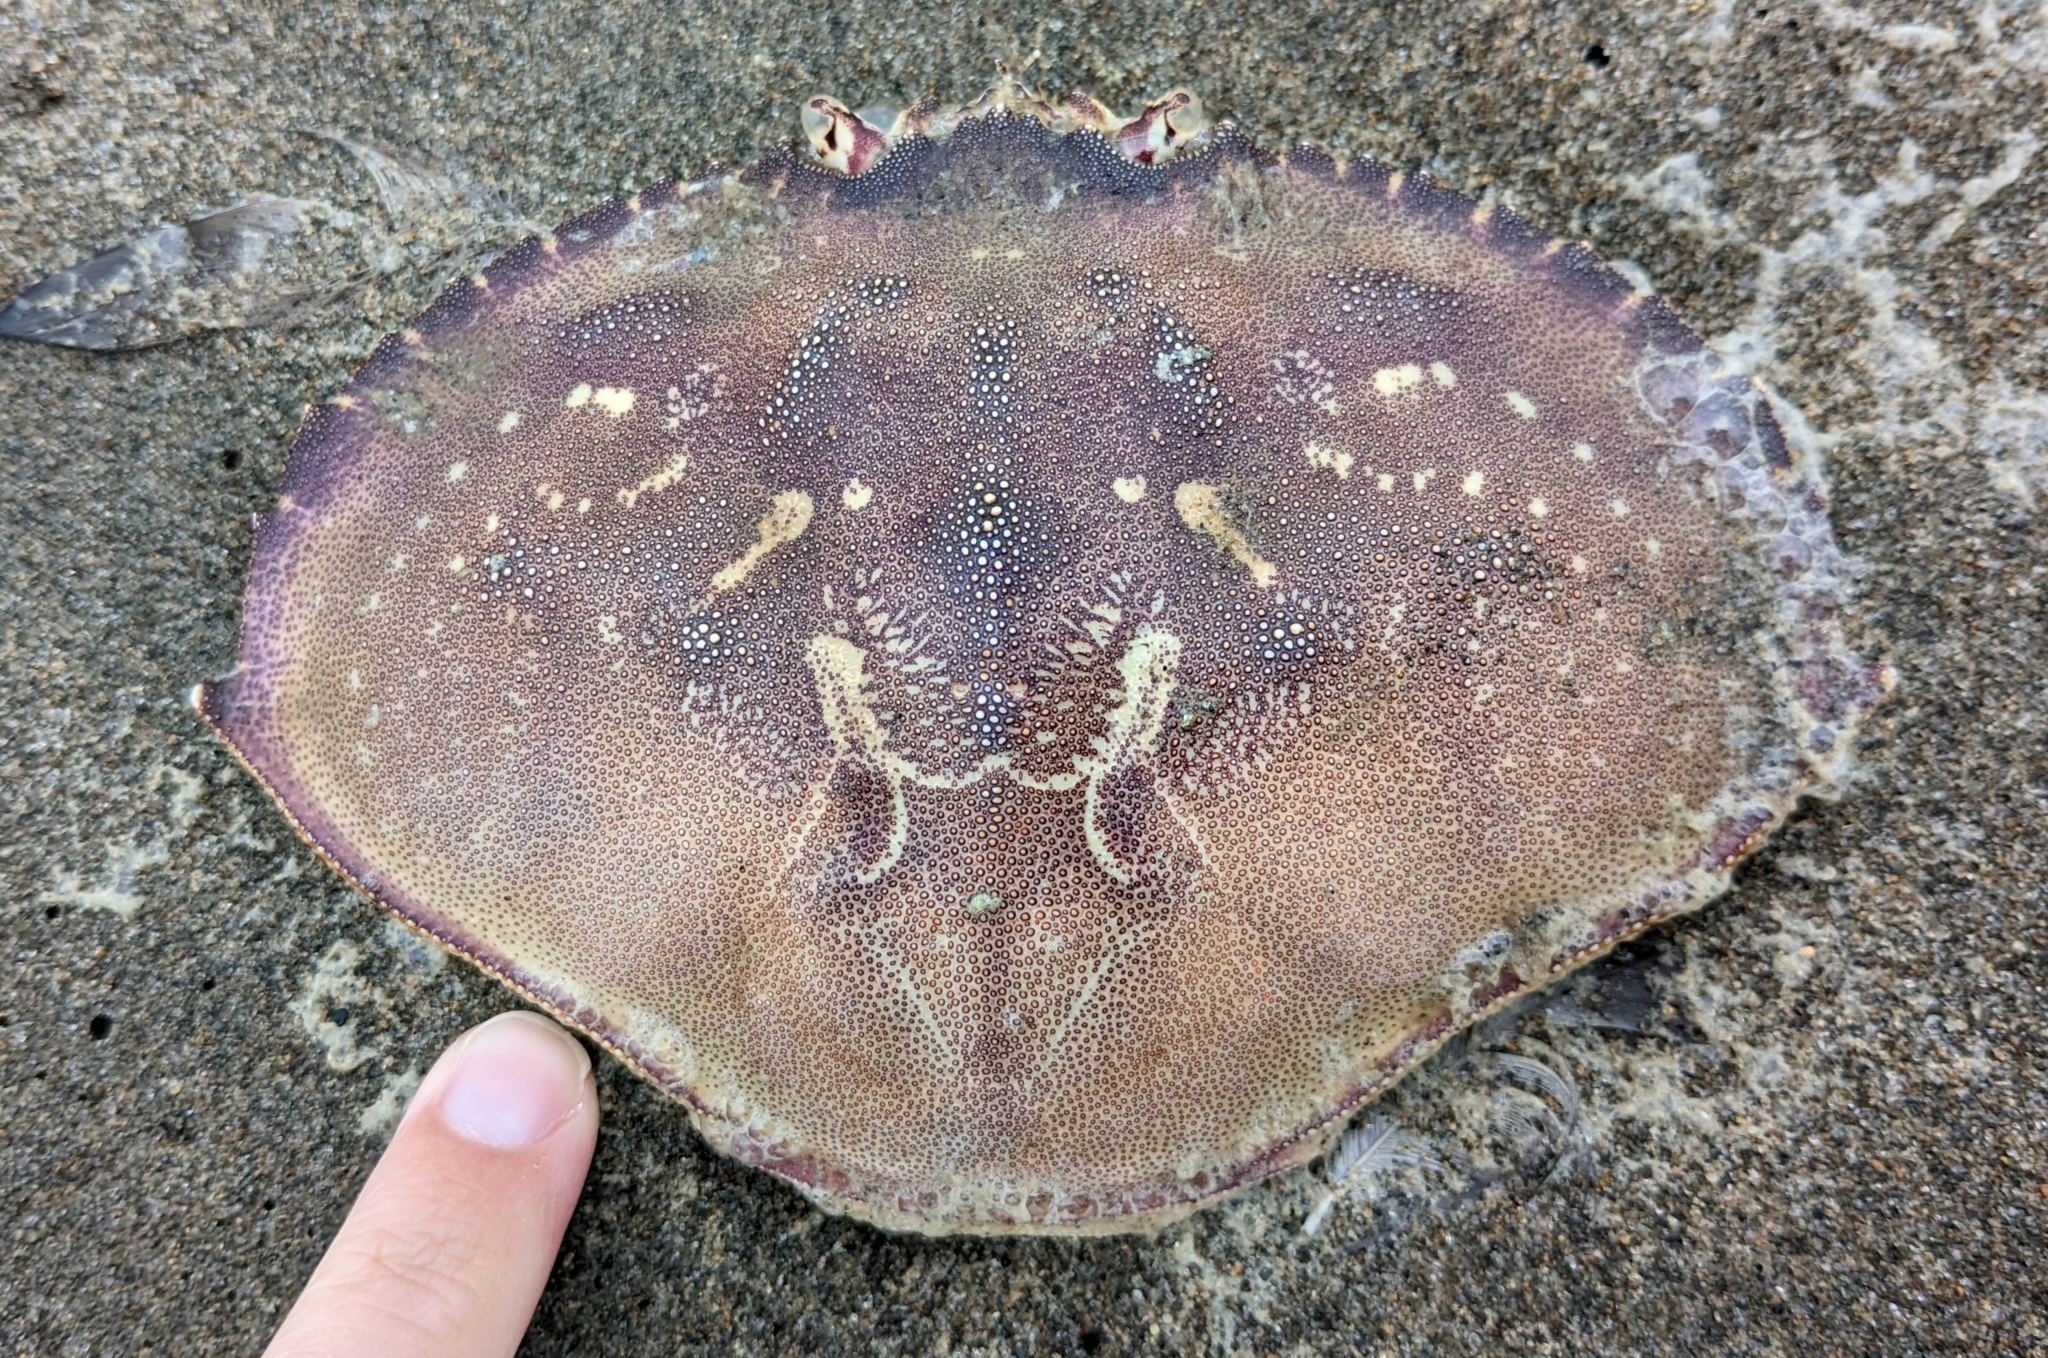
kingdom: Animalia
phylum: Arthropoda
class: Malacostraca
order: Decapoda
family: Cancridae
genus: Metacarcinus
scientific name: Metacarcinus magister
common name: Californian crab
